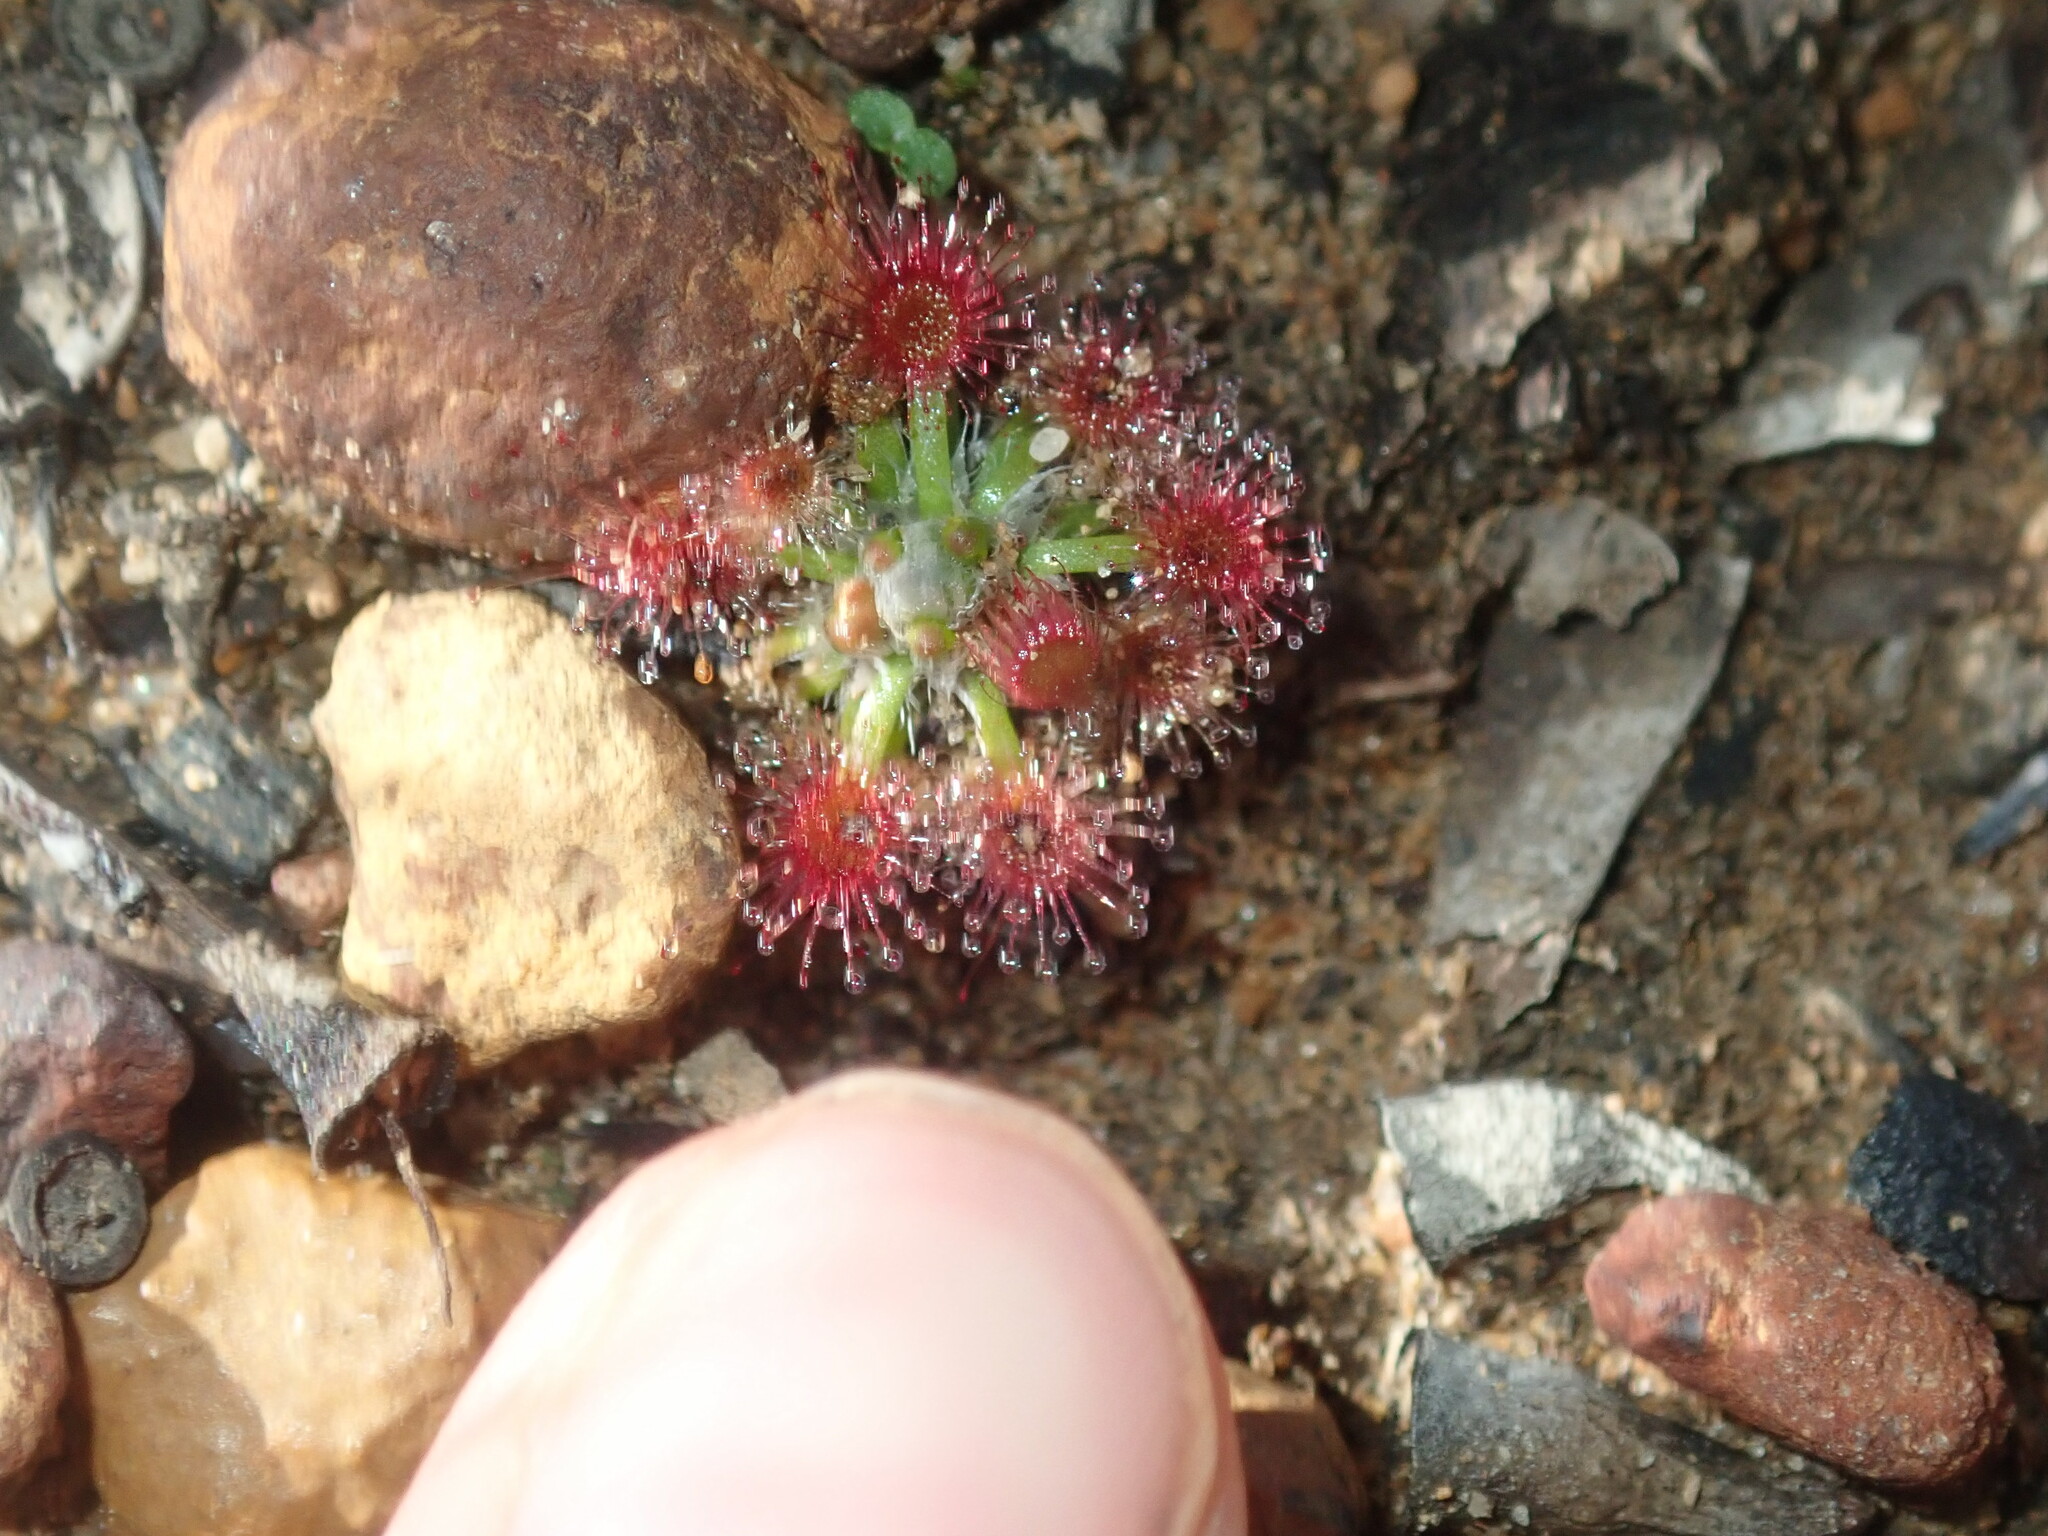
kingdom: Plantae
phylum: Tracheophyta
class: Magnoliopsida
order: Caryophyllales
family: Droseraceae
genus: Drosera
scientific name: Drosera spilos
